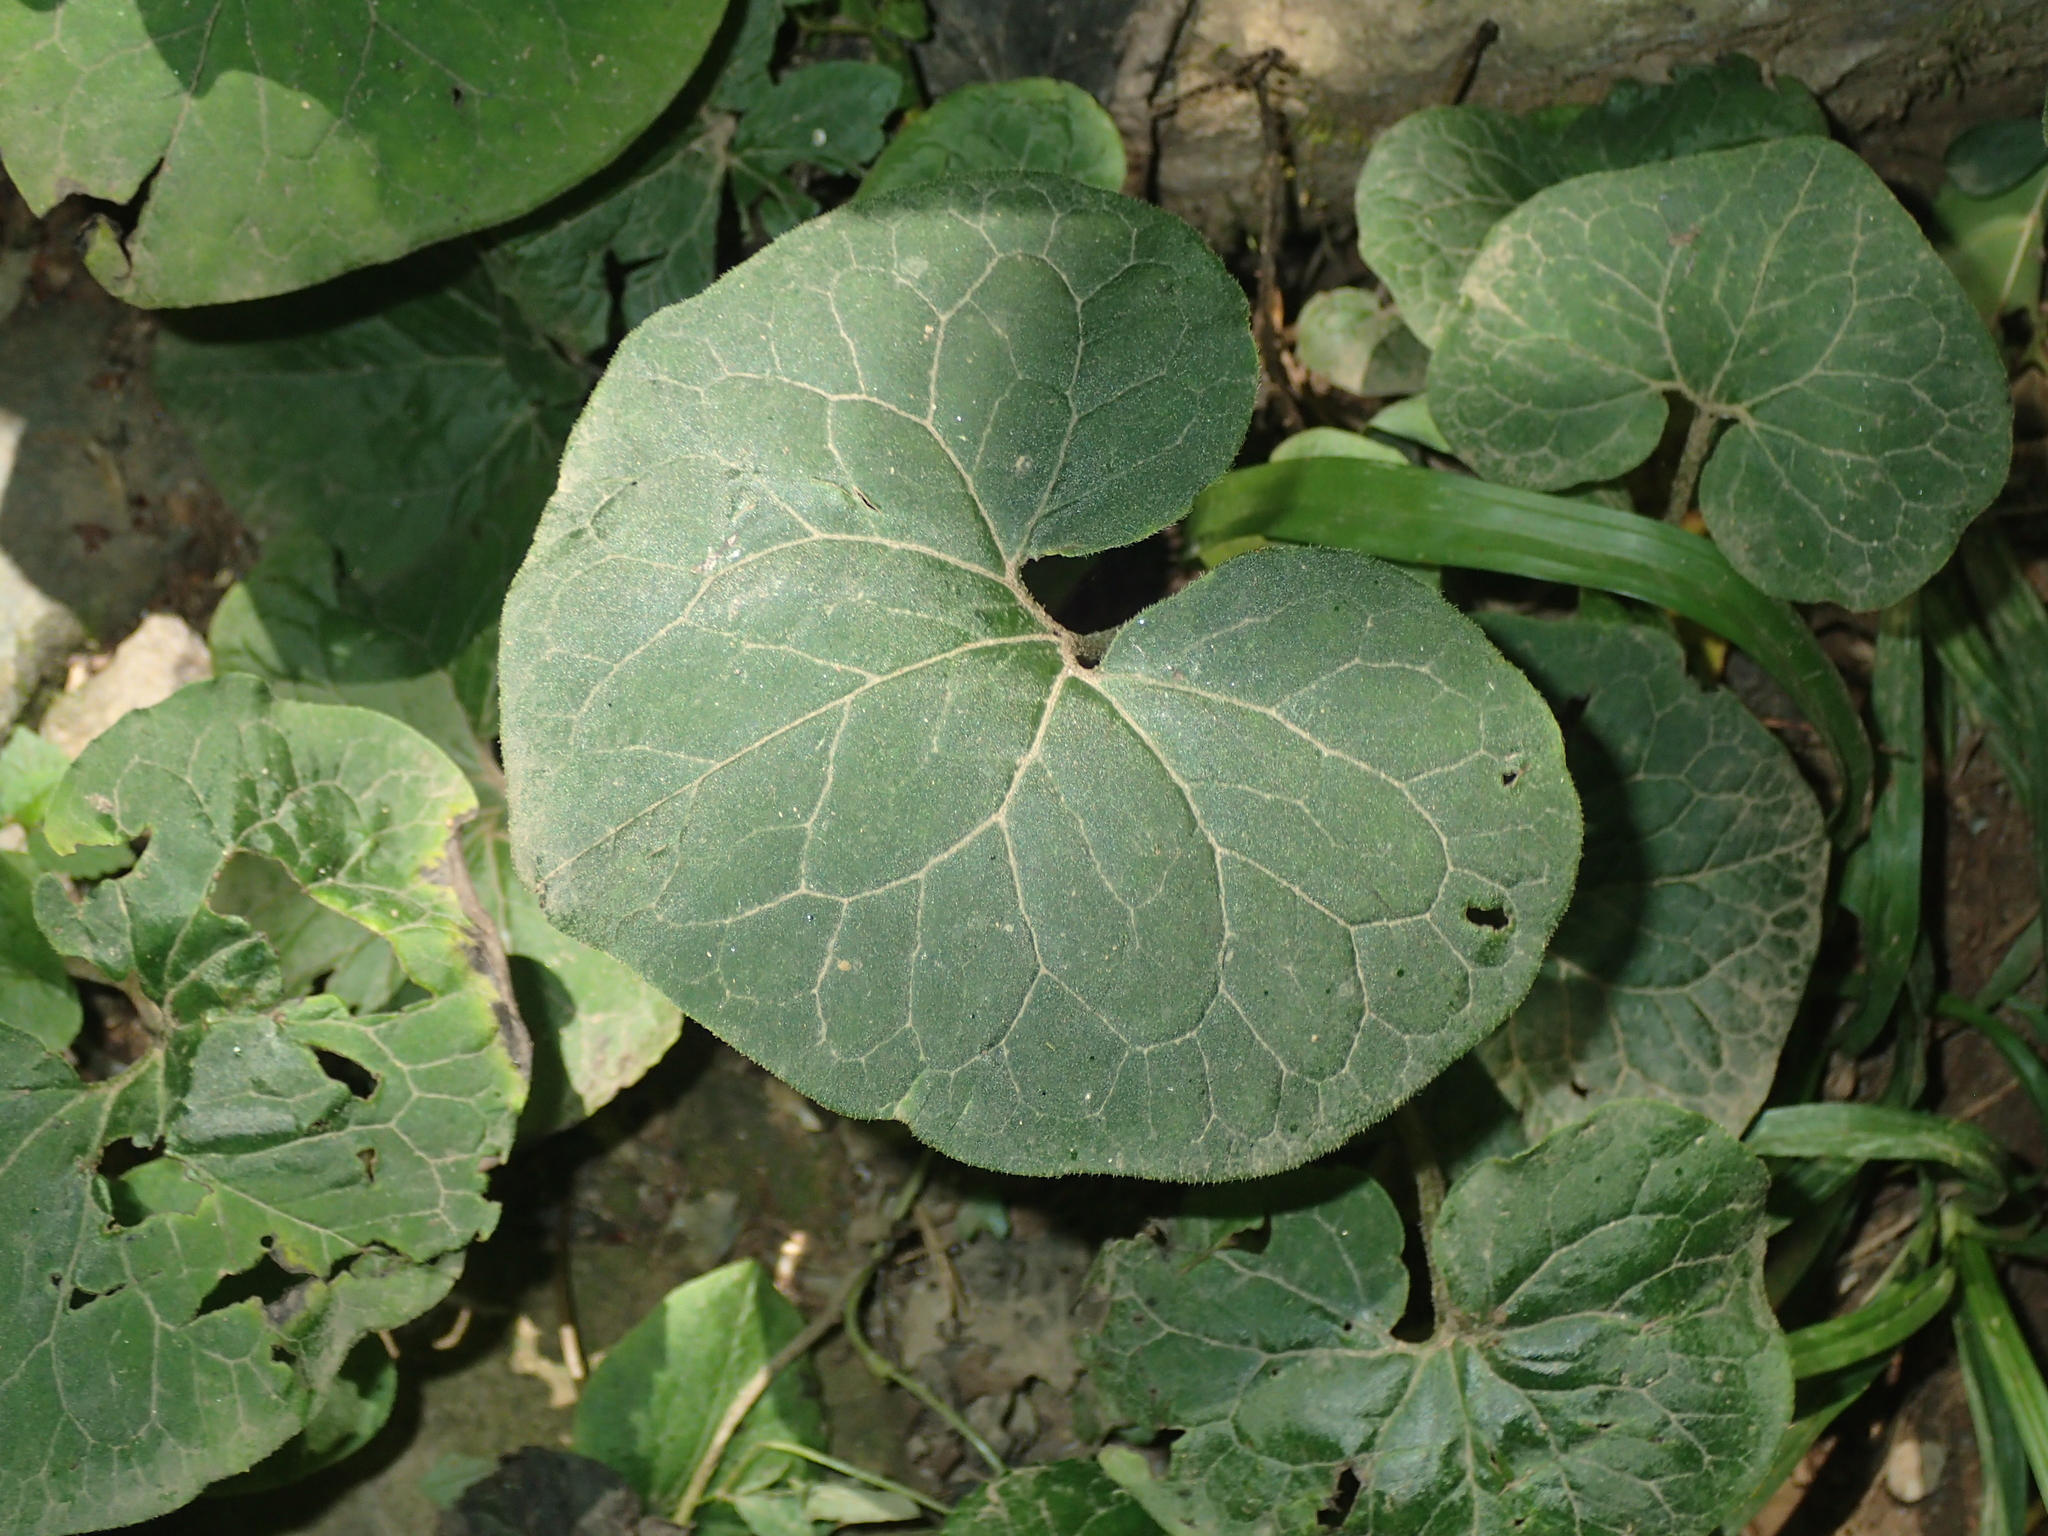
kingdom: Plantae
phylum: Tracheophyta
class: Magnoliopsida
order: Piperales
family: Aristolochiaceae
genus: Asarum
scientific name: Asarum canadense
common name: Wild ginger
